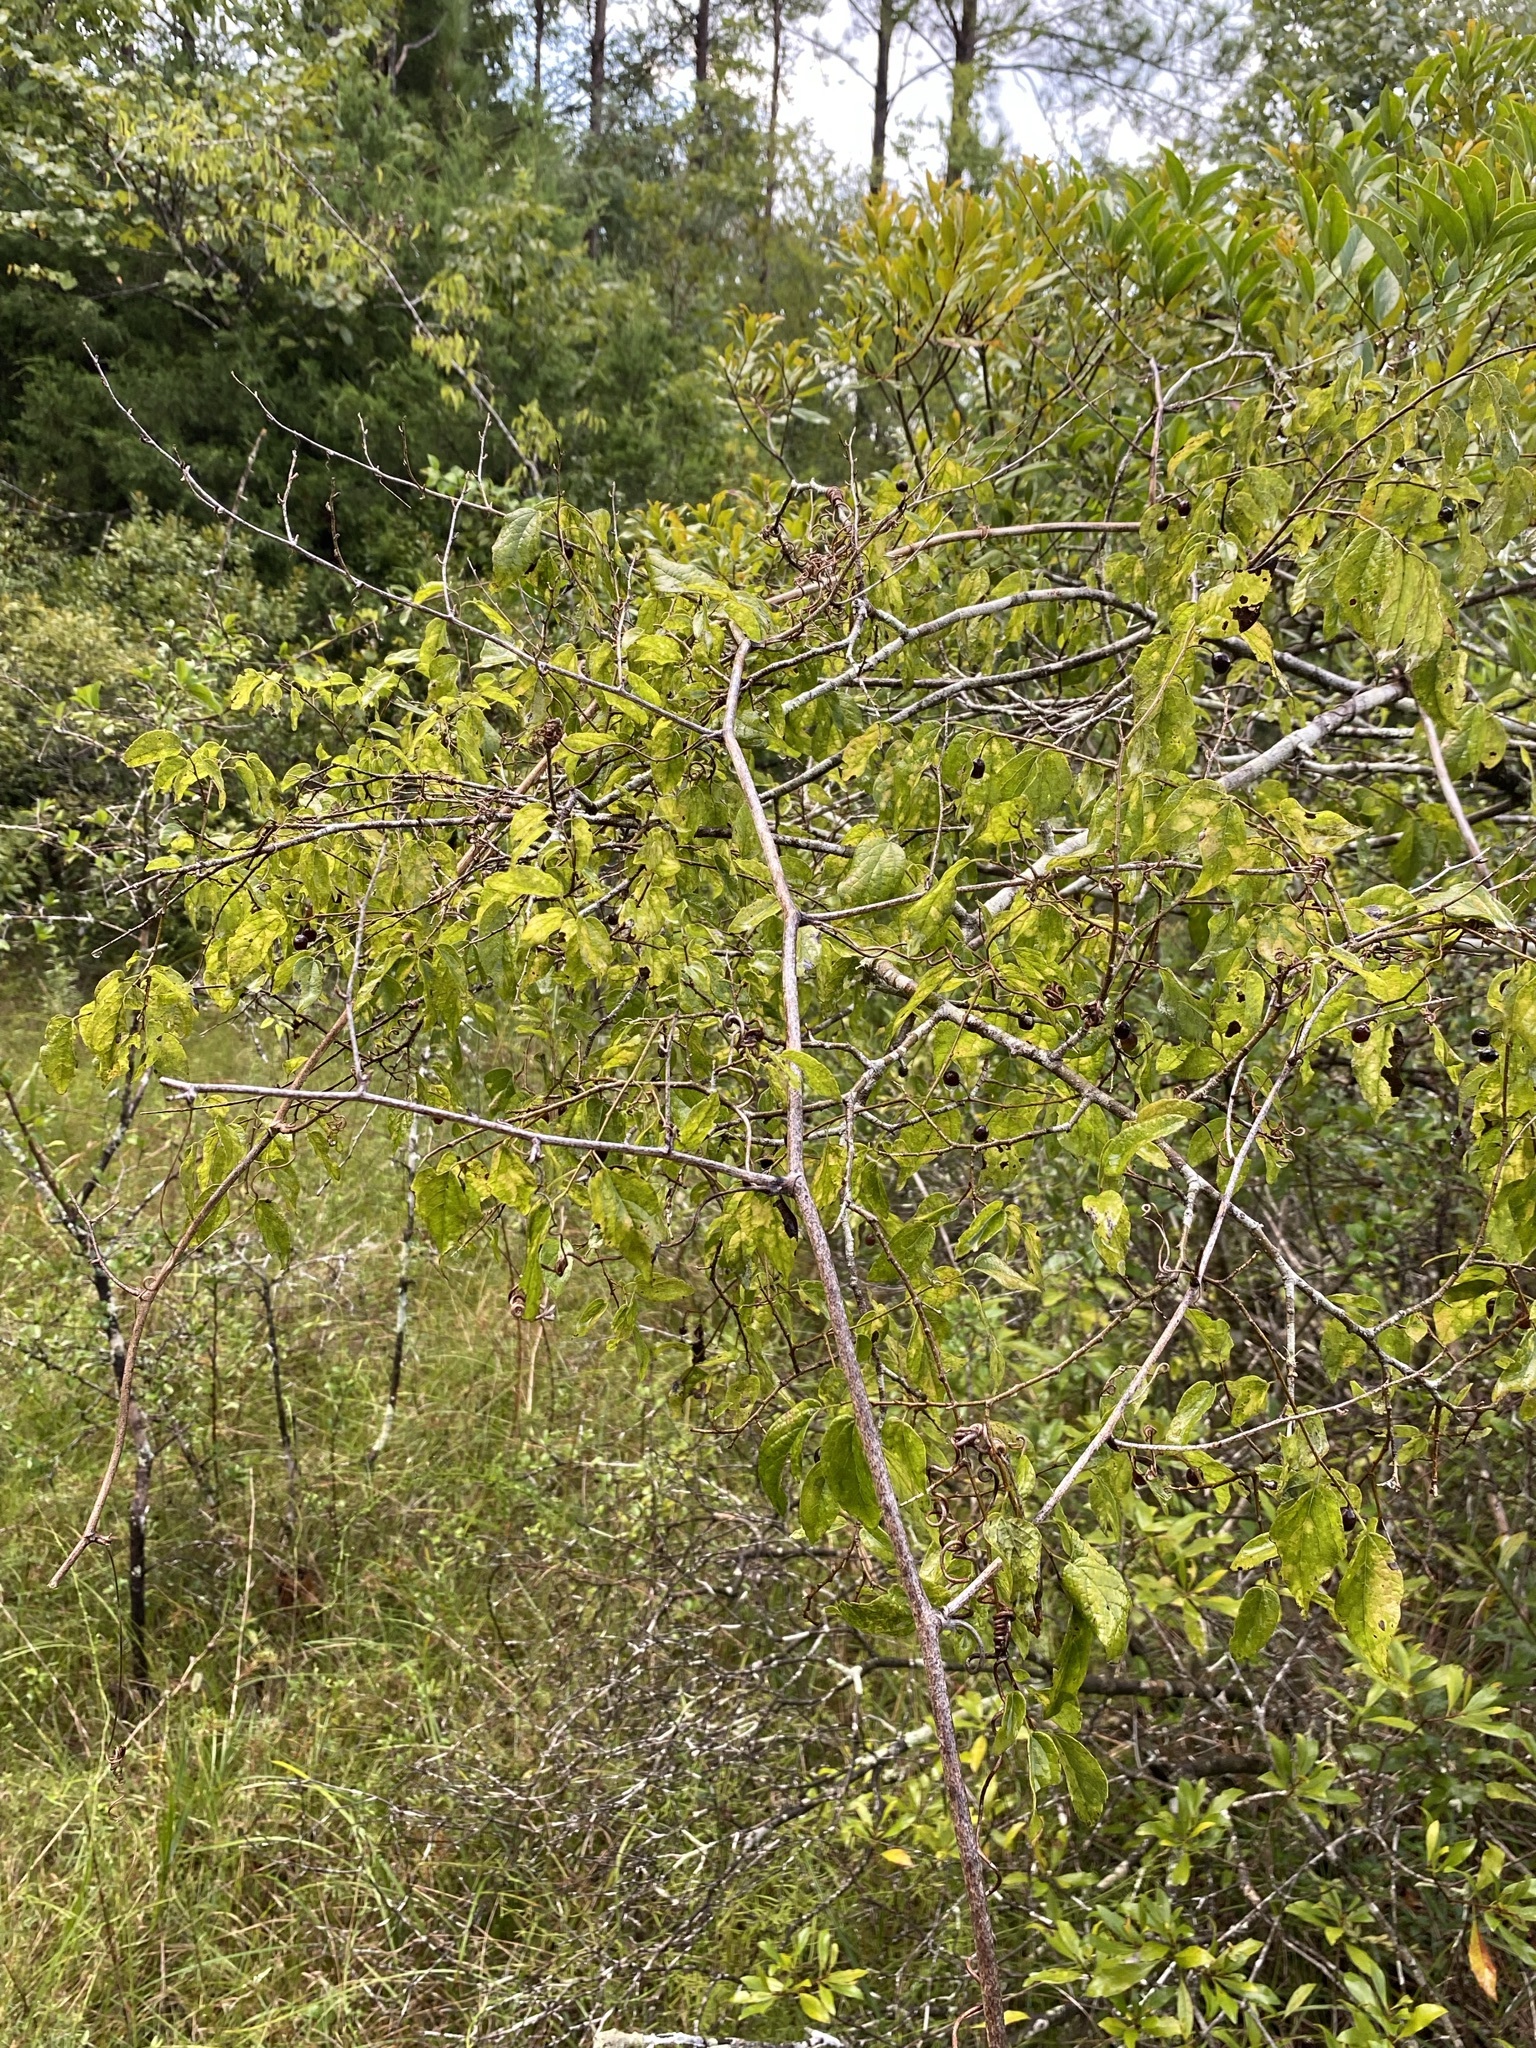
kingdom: Plantae
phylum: Tracheophyta
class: Magnoliopsida
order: Rosales
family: Cannabaceae
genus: Celtis
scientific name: Celtis tenuifolia
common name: Georgia hackberry
